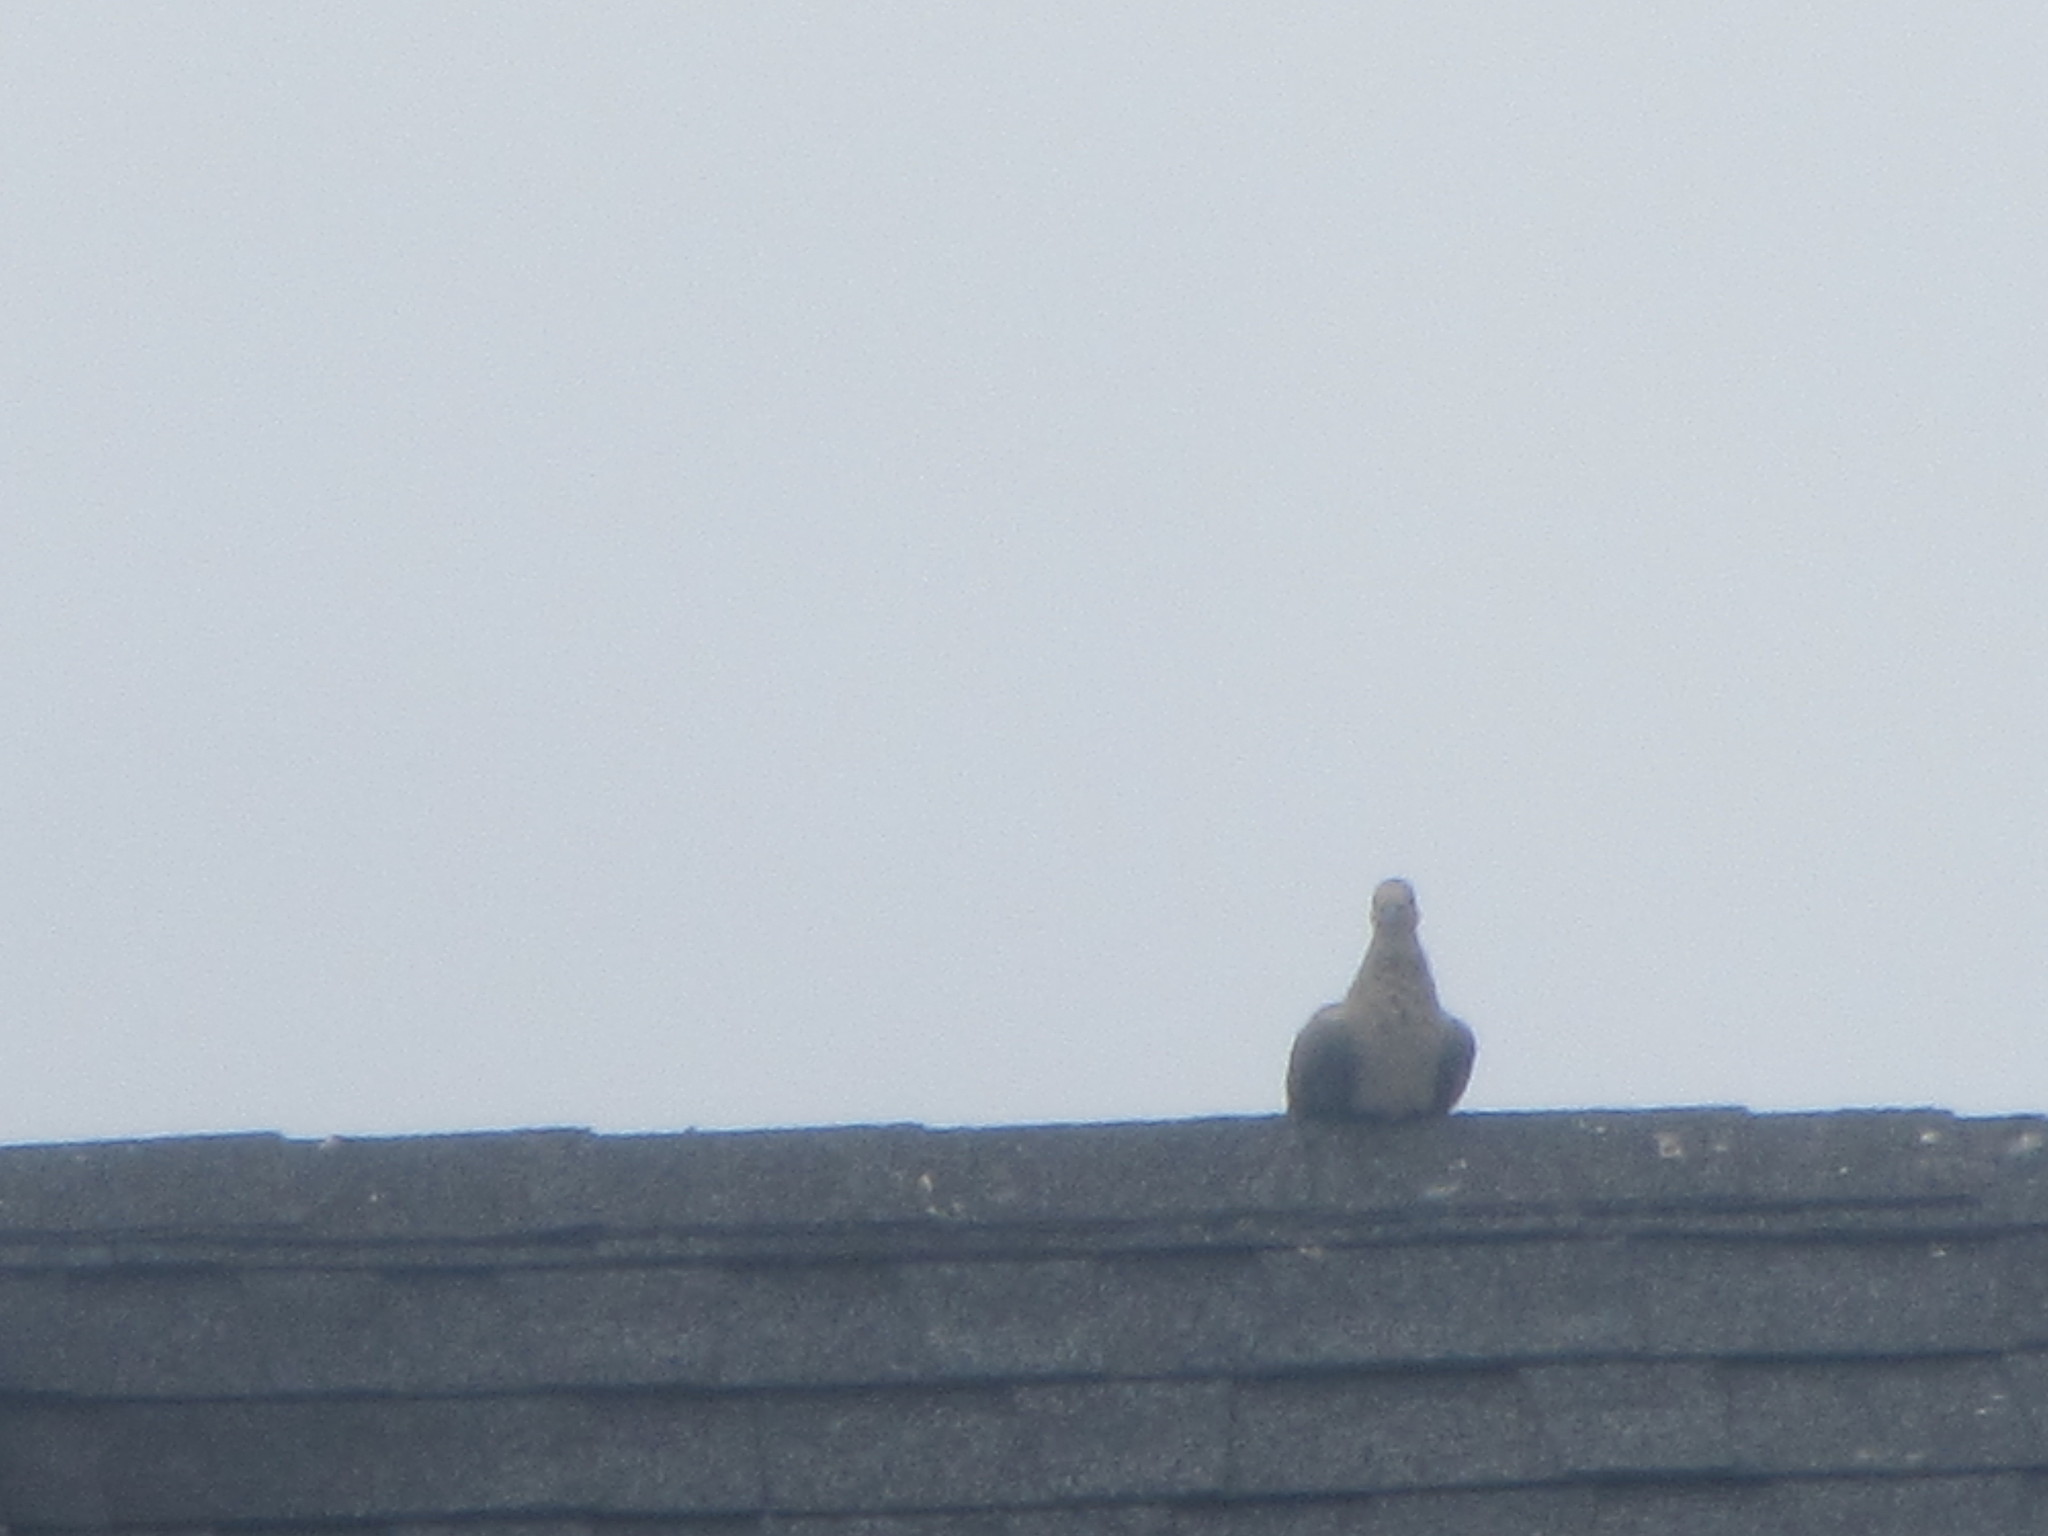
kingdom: Animalia
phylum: Chordata
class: Aves
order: Columbiformes
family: Columbidae
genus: Zenaida
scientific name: Zenaida macroura
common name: Mourning dove
